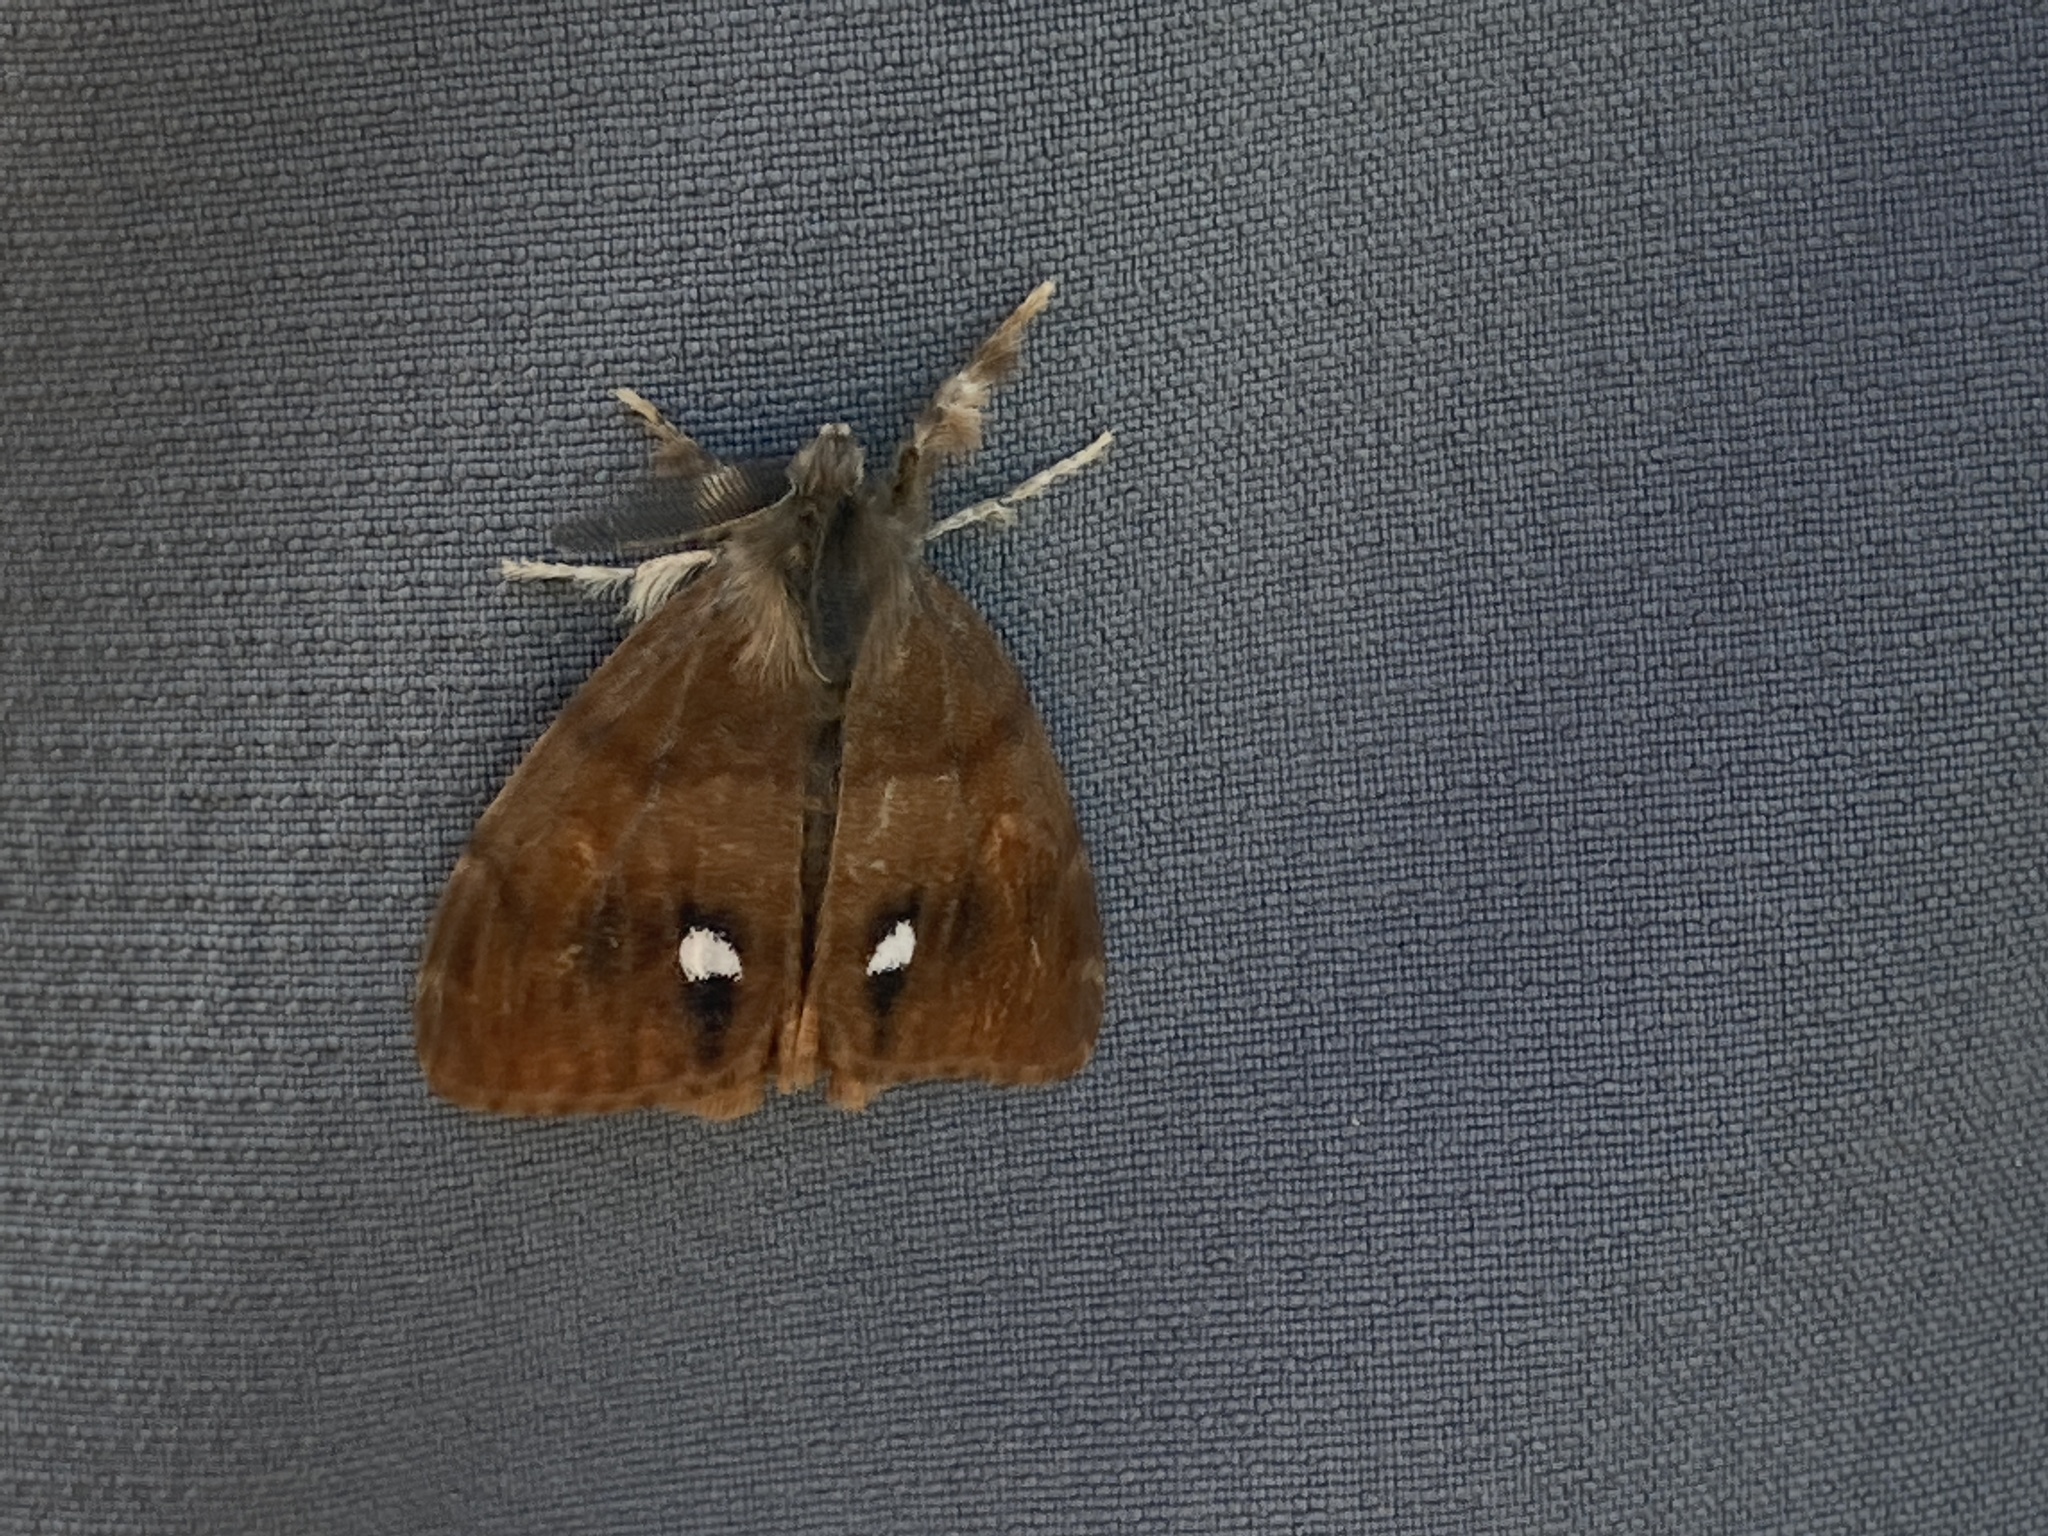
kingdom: Animalia
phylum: Arthropoda
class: Insecta
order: Lepidoptera
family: Erebidae
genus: Orgyia
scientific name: Orgyia antiqua
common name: Vapourer
